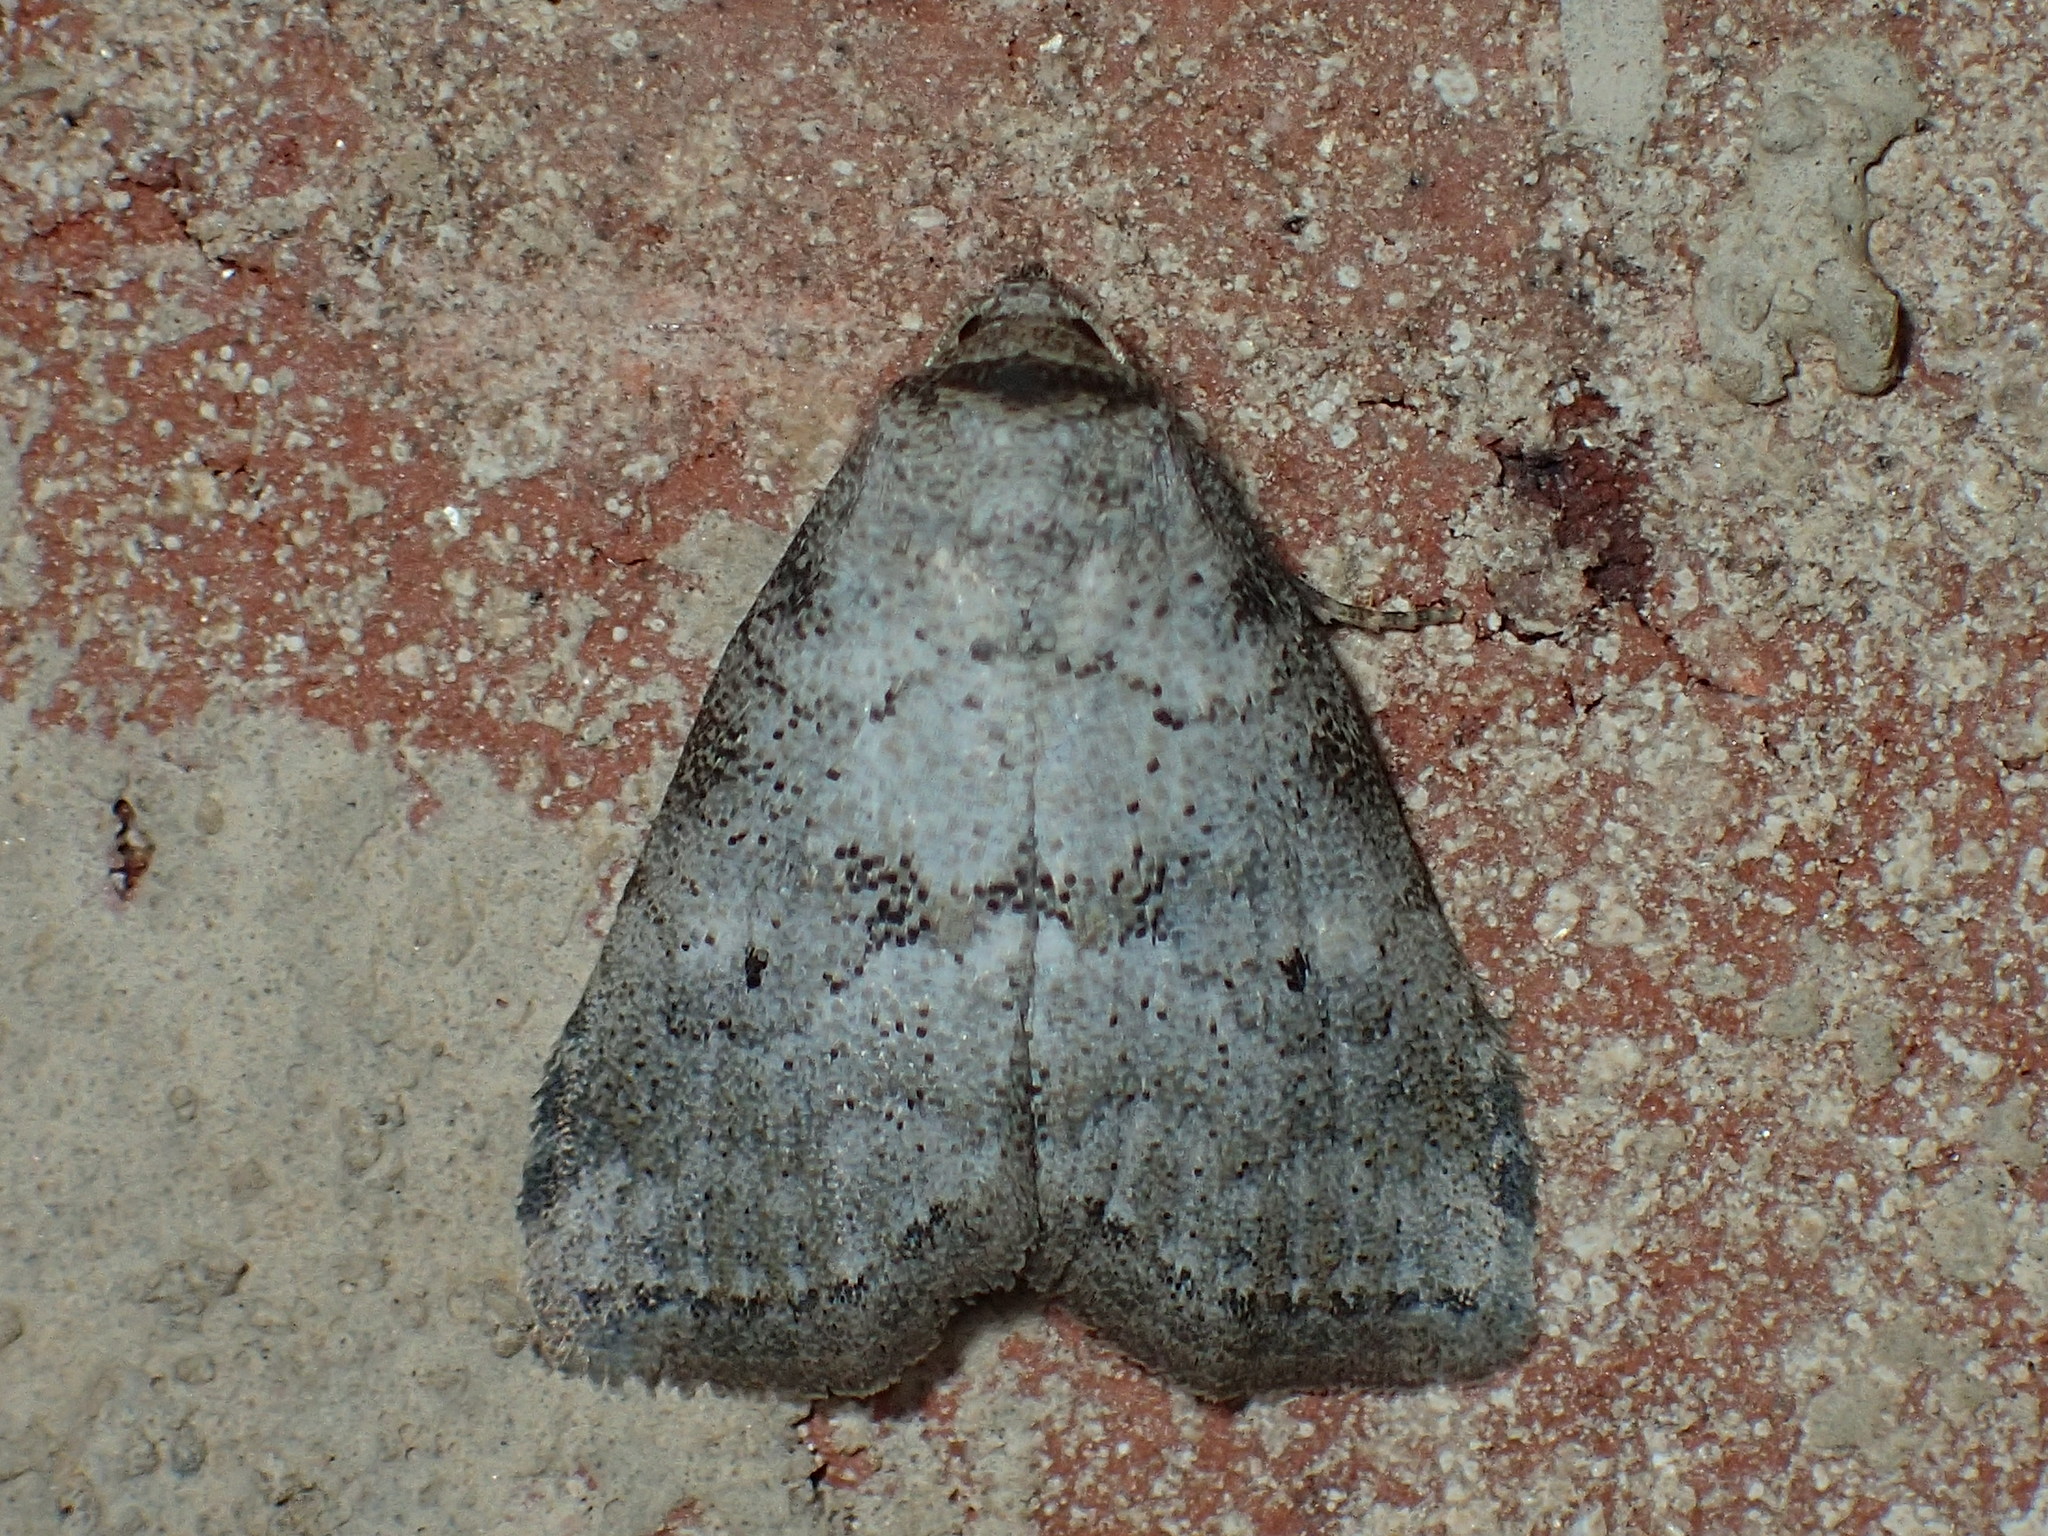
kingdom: Animalia
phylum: Arthropoda
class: Insecta
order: Lepidoptera
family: Erebidae
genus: Hyperstrotia
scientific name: Hyperstrotia pervertens
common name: Dotted graylet
